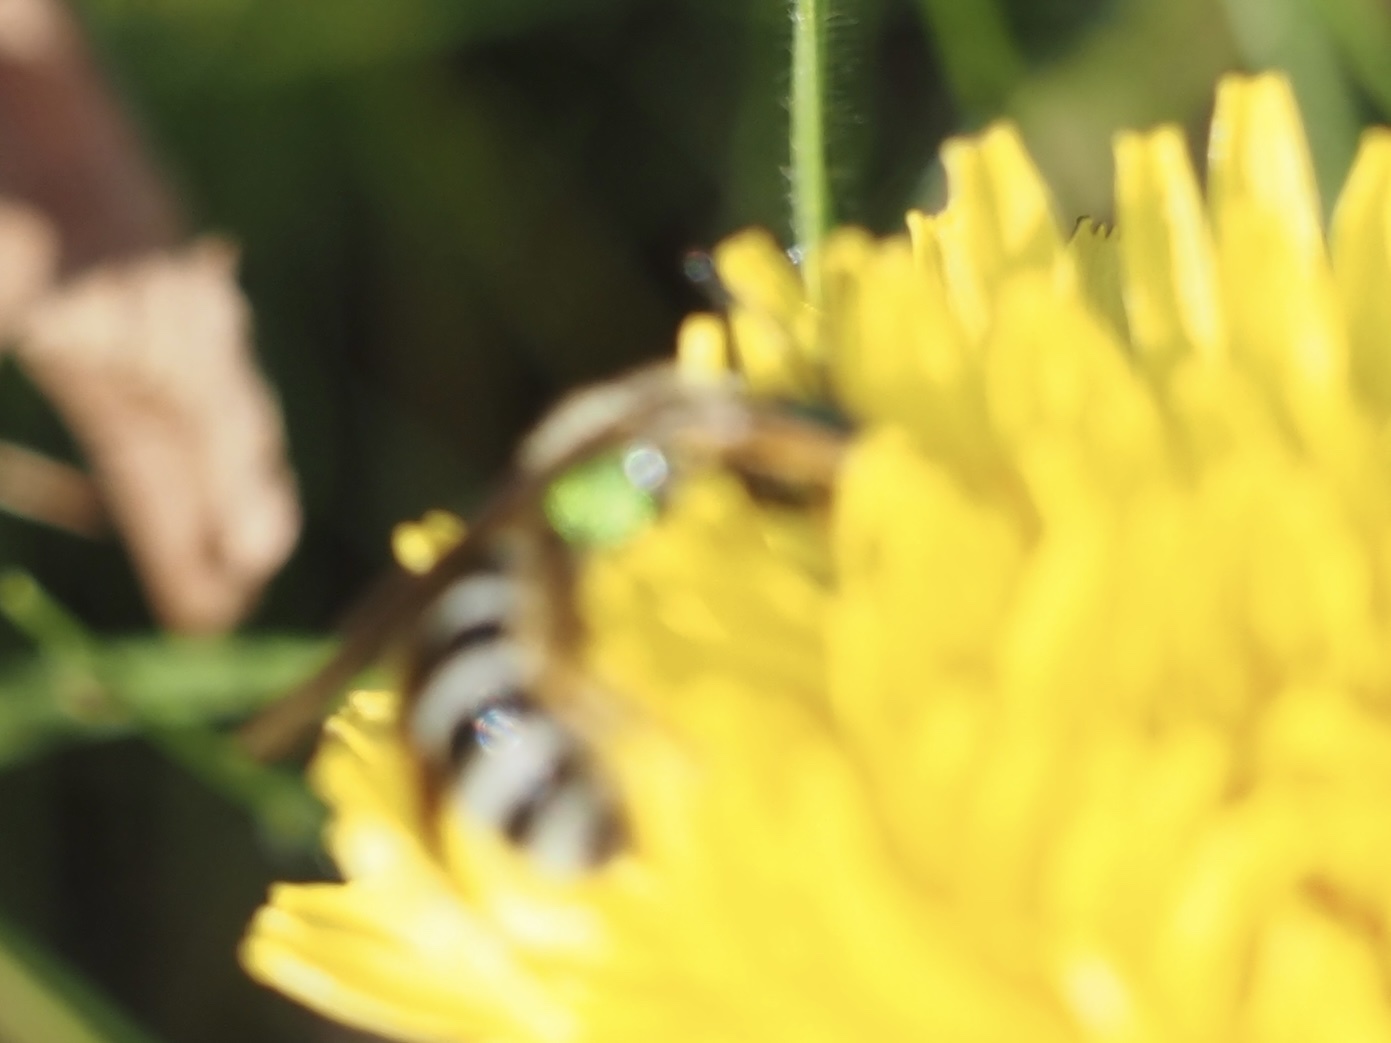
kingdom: Animalia
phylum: Arthropoda
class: Insecta
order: Hymenoptera
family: Halictidae
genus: Agapostemon
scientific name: Agapostemon virescens
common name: Bicolored striped sweat bee
